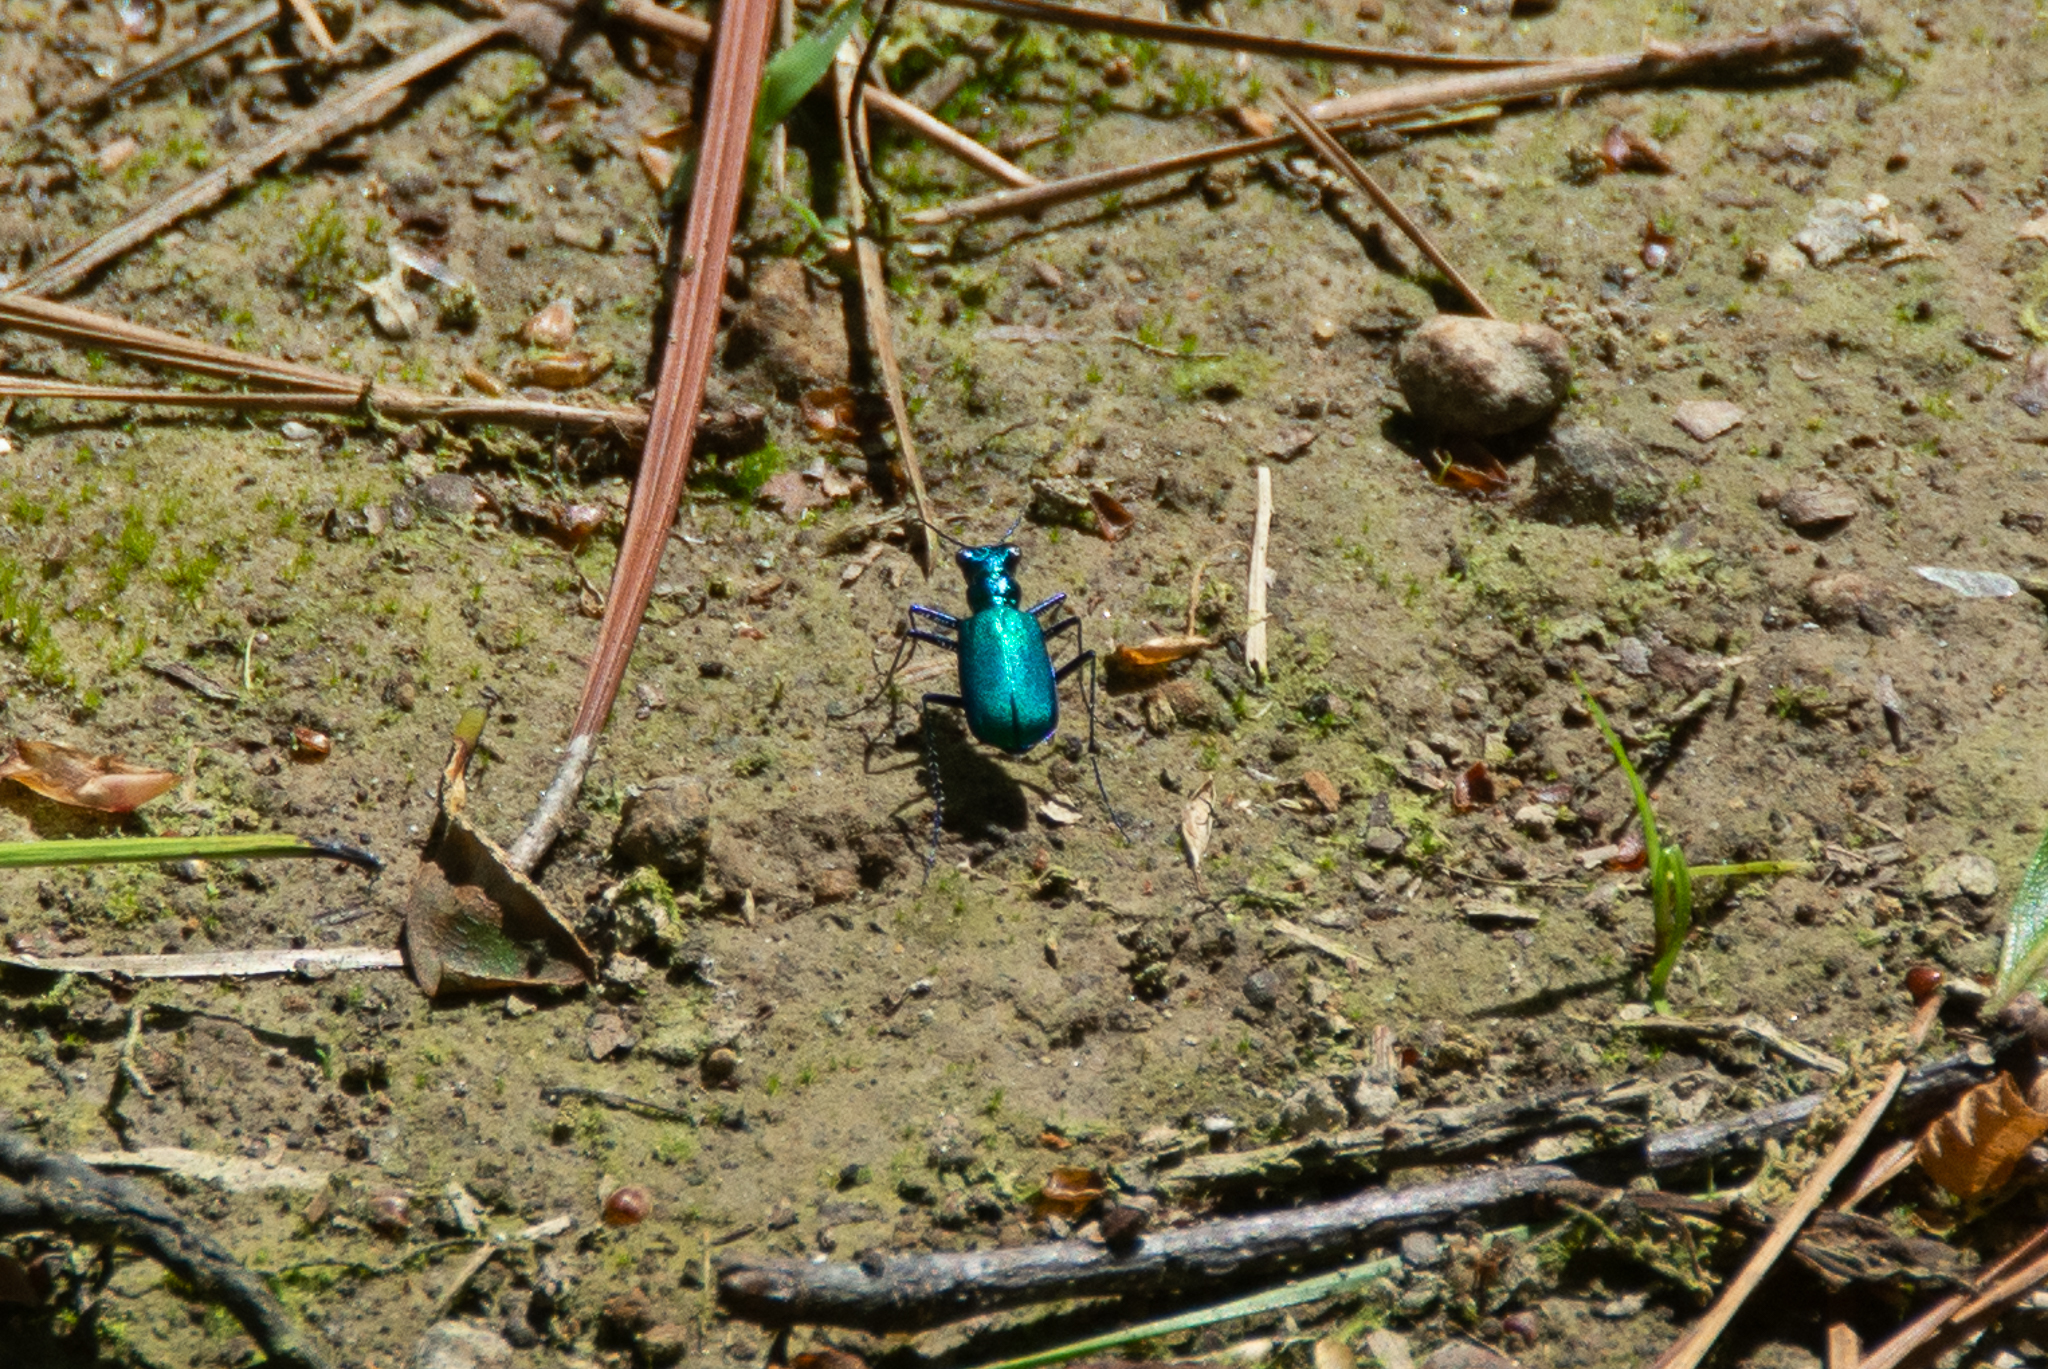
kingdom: Animalia
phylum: Arthropoda
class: Insecta
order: Coleoptera
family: Carabidae
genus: Cicindela
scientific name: Cicindela sexguttata
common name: Six-spotted tiger beetle
